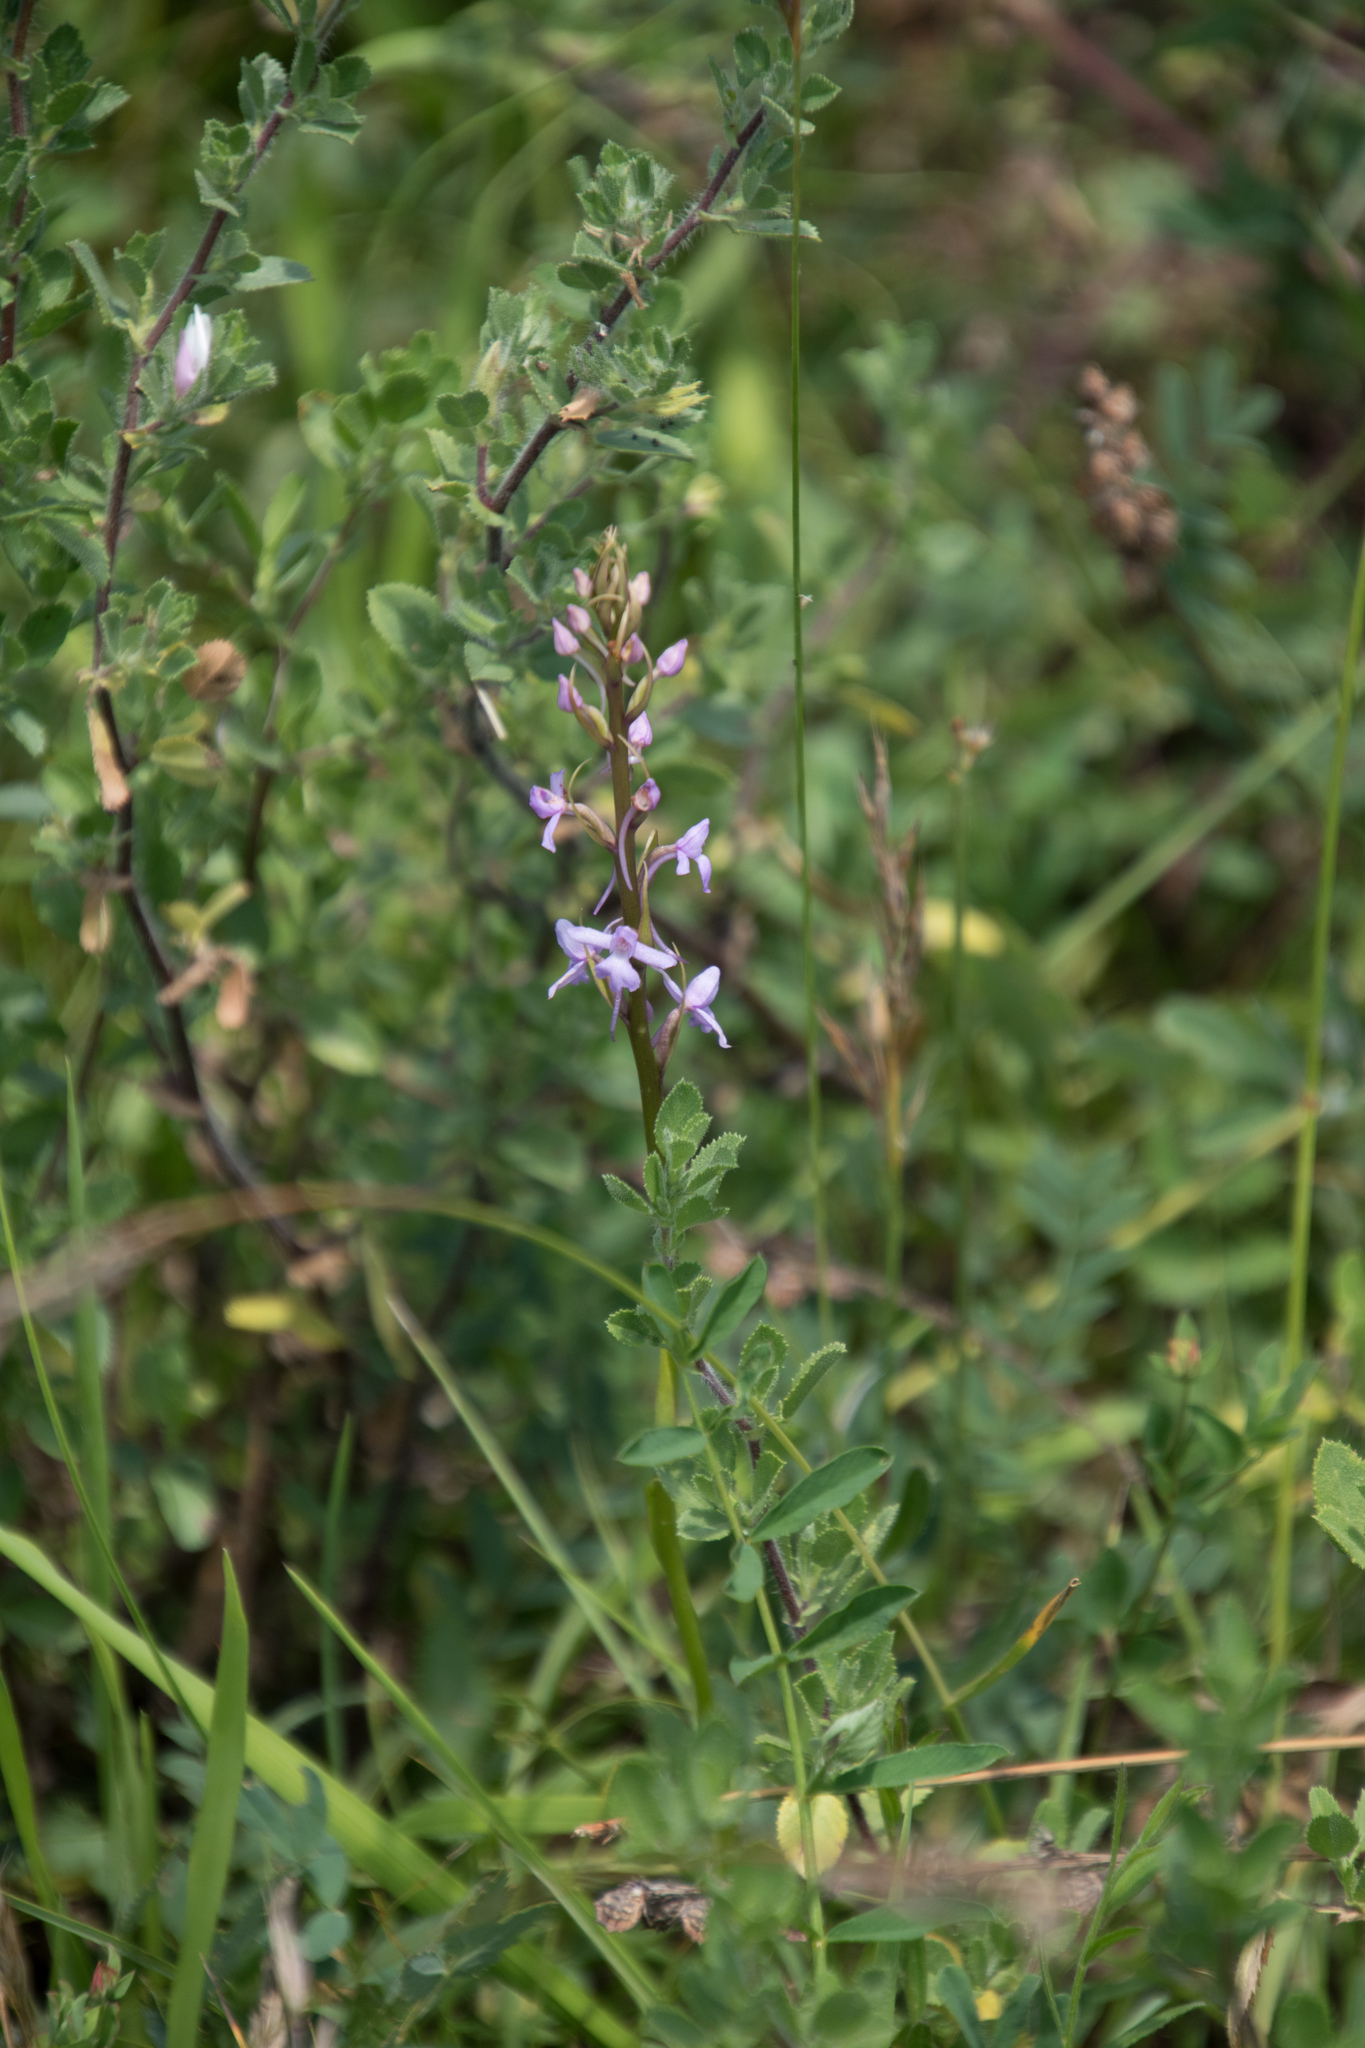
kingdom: Plantae
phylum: Tracheophyta
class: Liliopsida
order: Asparagales
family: Orchidaceae
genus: Gymnadenia
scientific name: Gymnadenia conopsea
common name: Fragrant orchid
